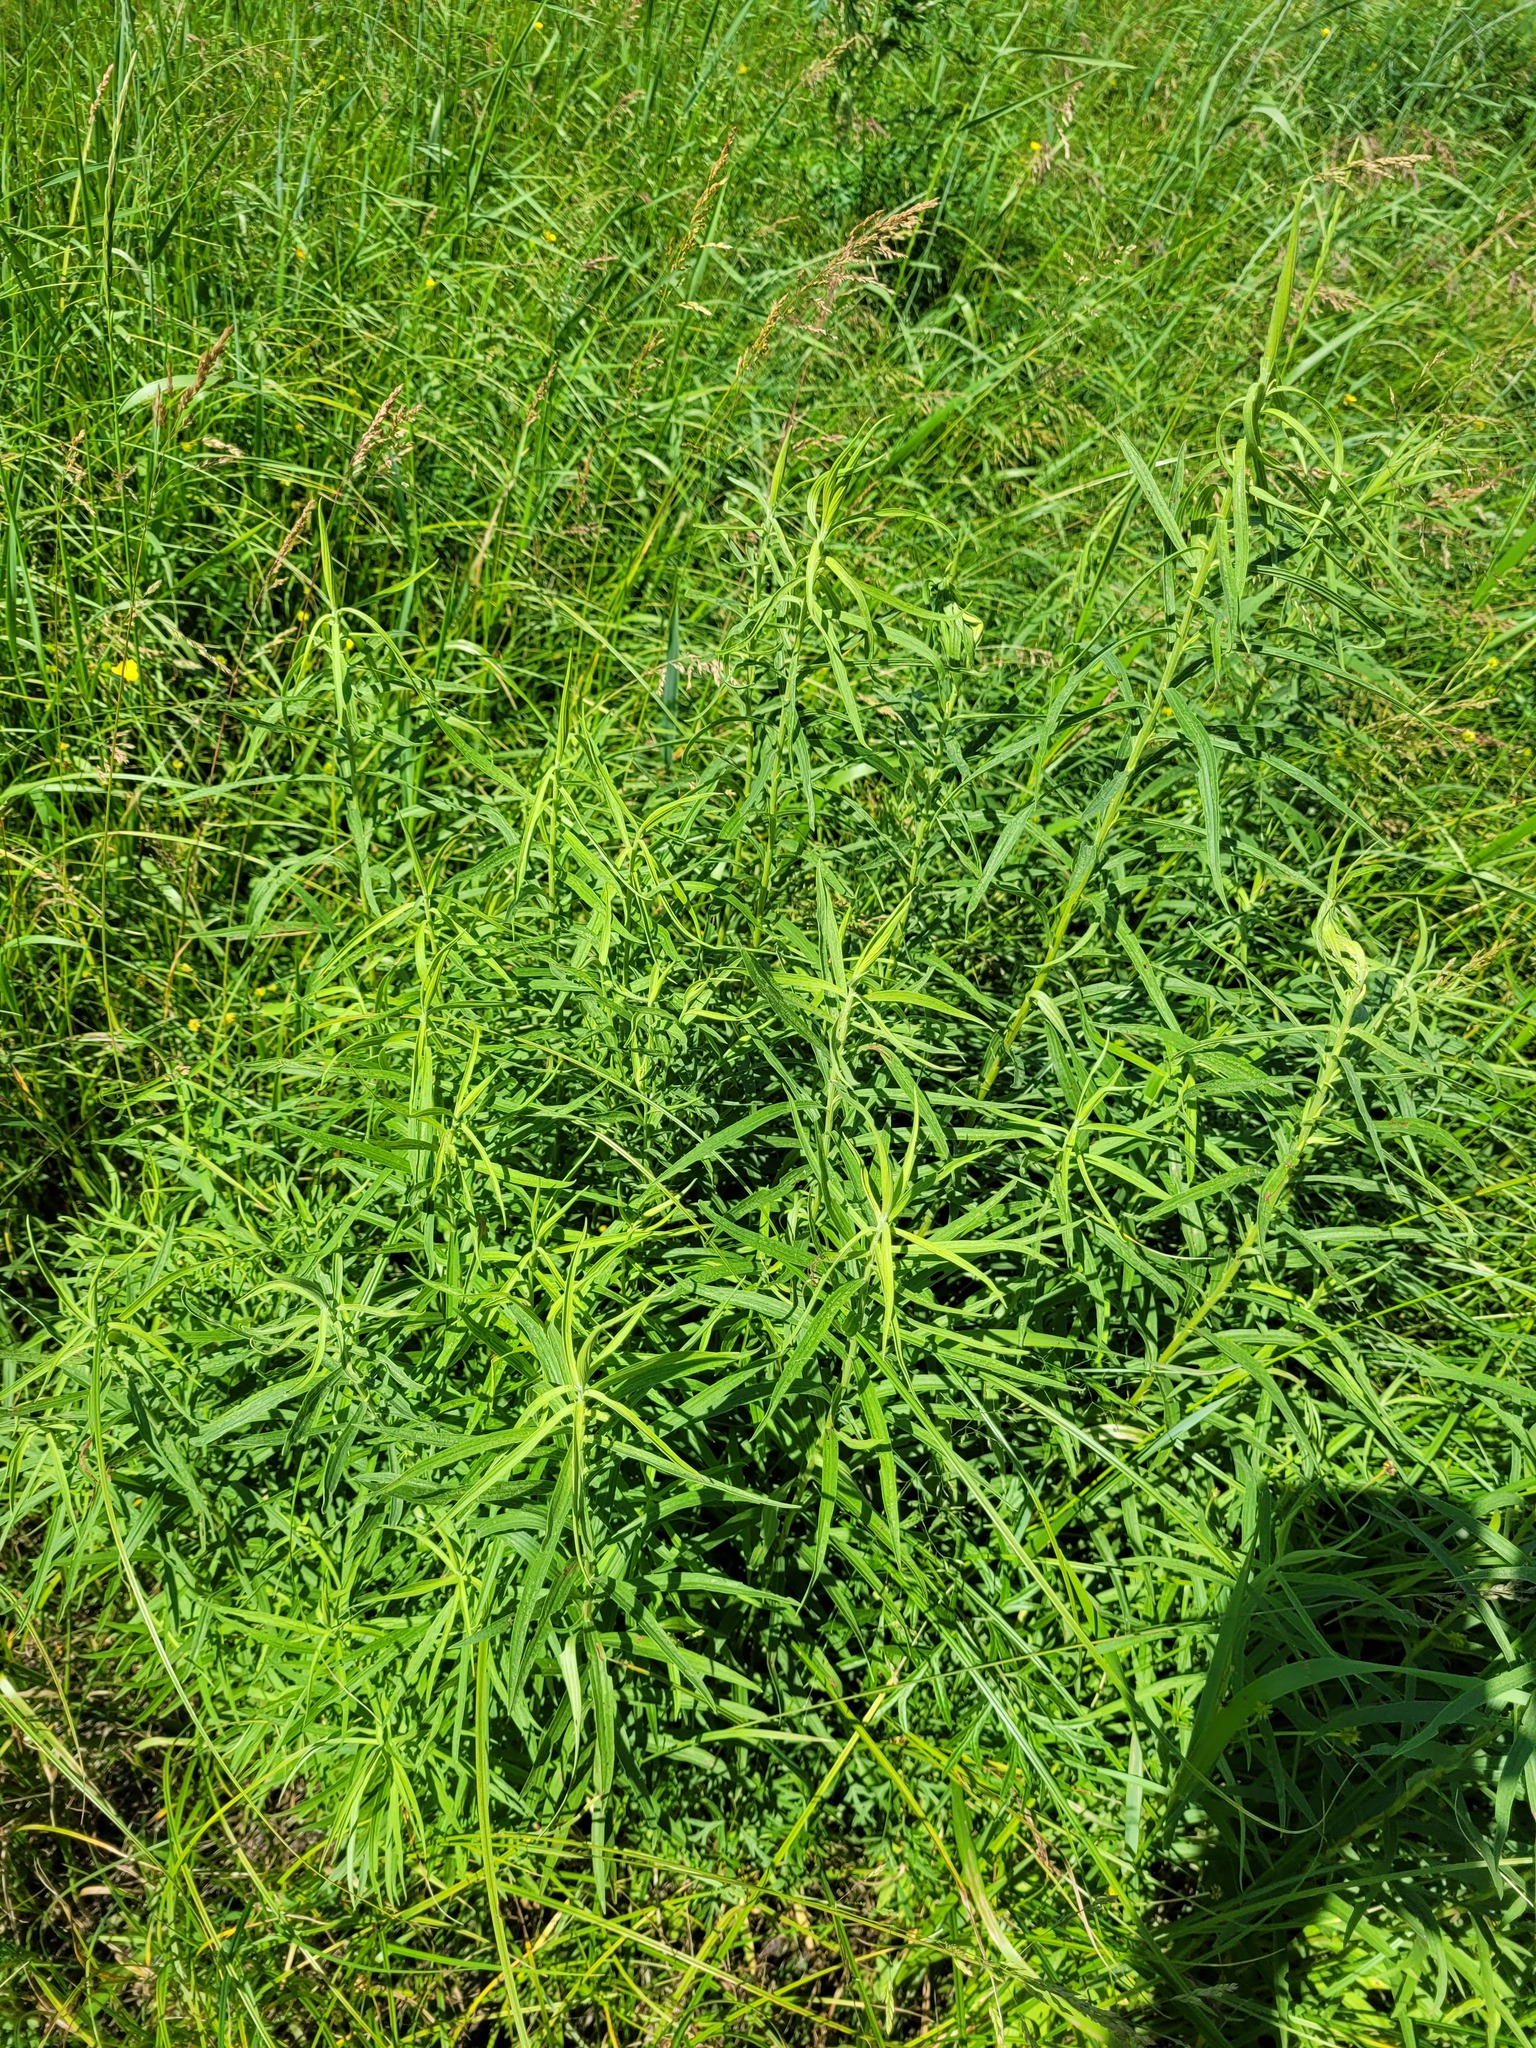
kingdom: Plantae
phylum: Tracheophyta
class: Magnoliopsida
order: Asterales
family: Asteraceae
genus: Galatella
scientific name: Galatella sedifolia
